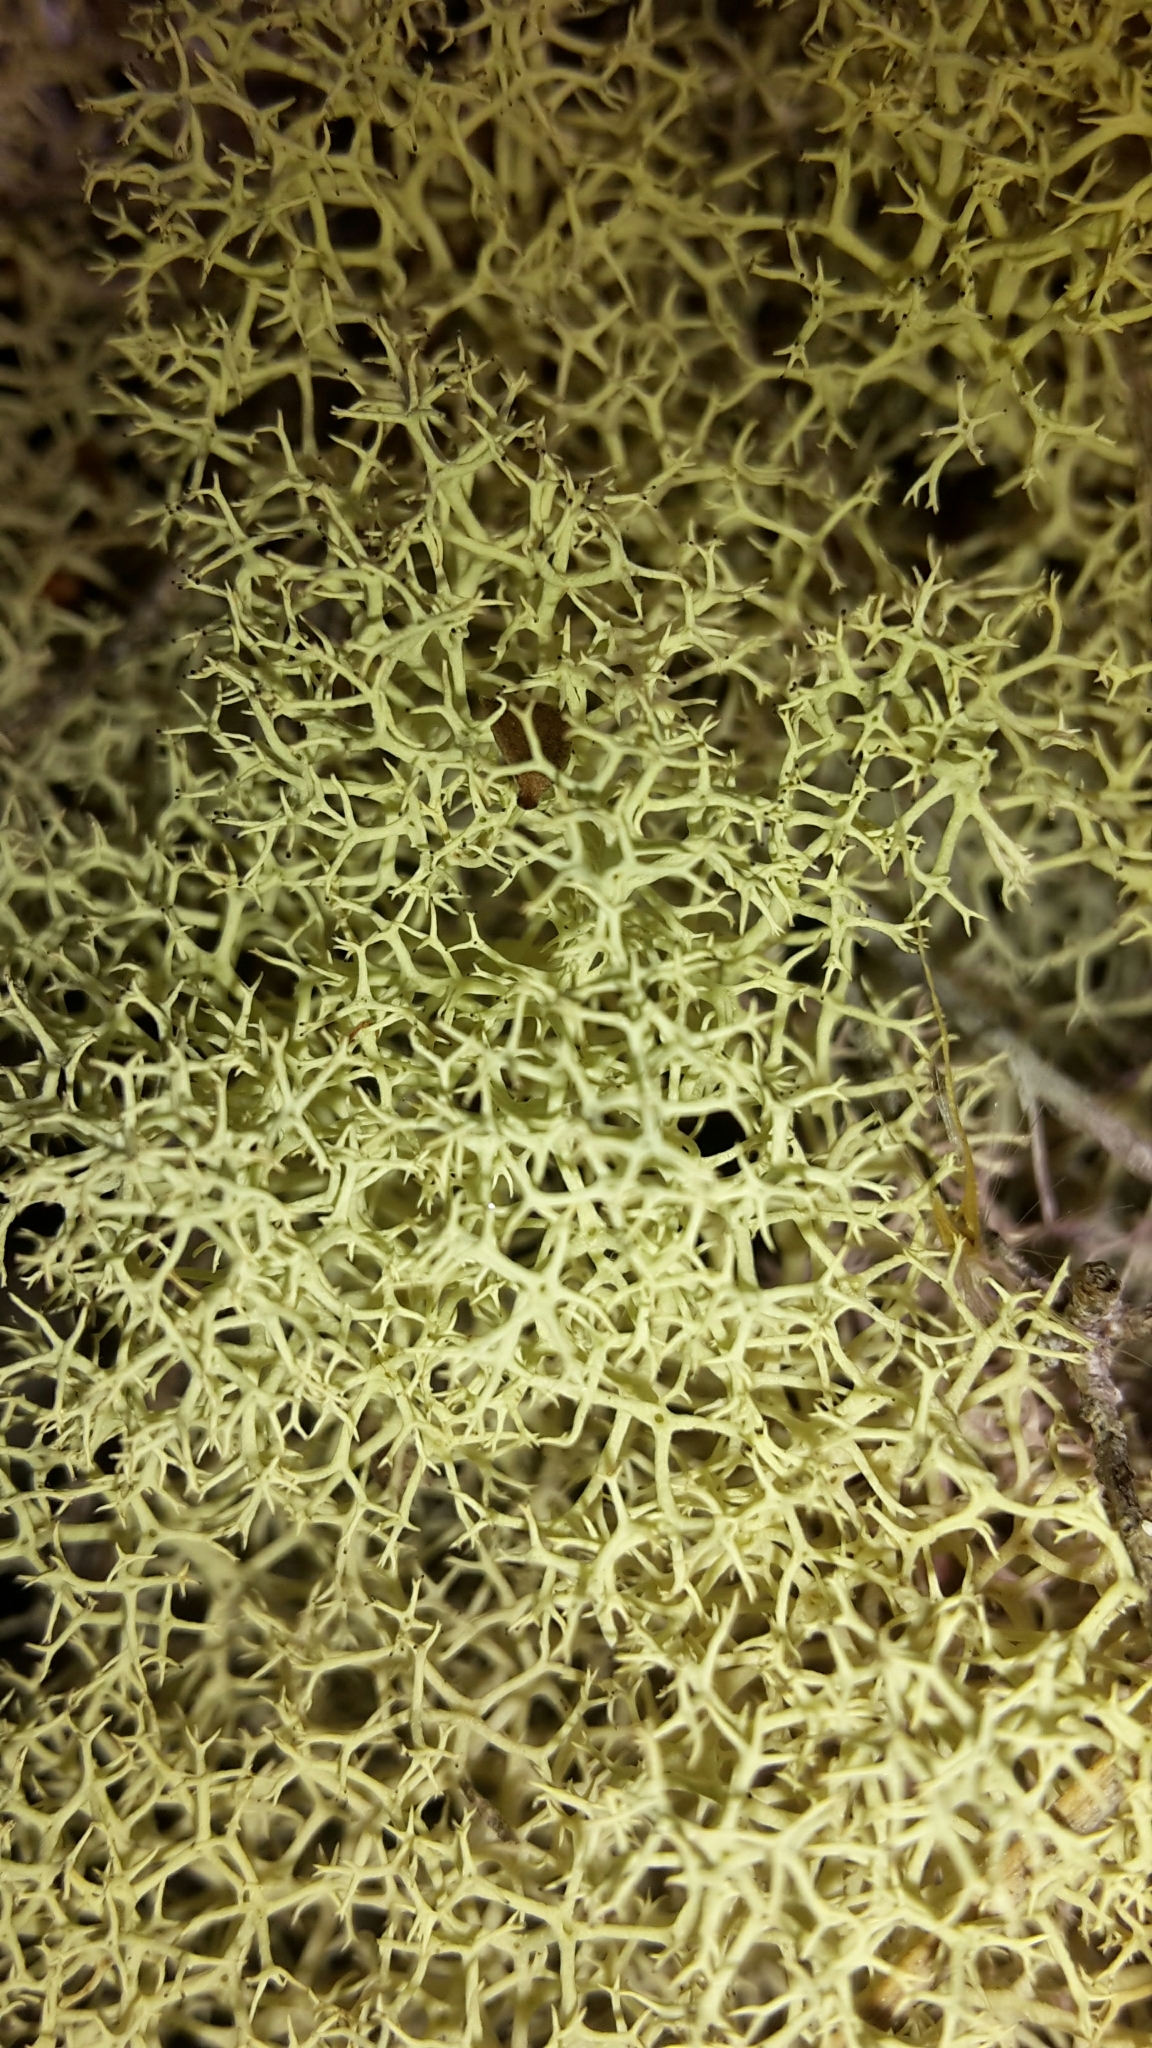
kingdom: Fungi
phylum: Ascomycota
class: Lecanoromycetes
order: Lecanorales
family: Cladoniaceae
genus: Cladonia
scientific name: Cladonia confusa
